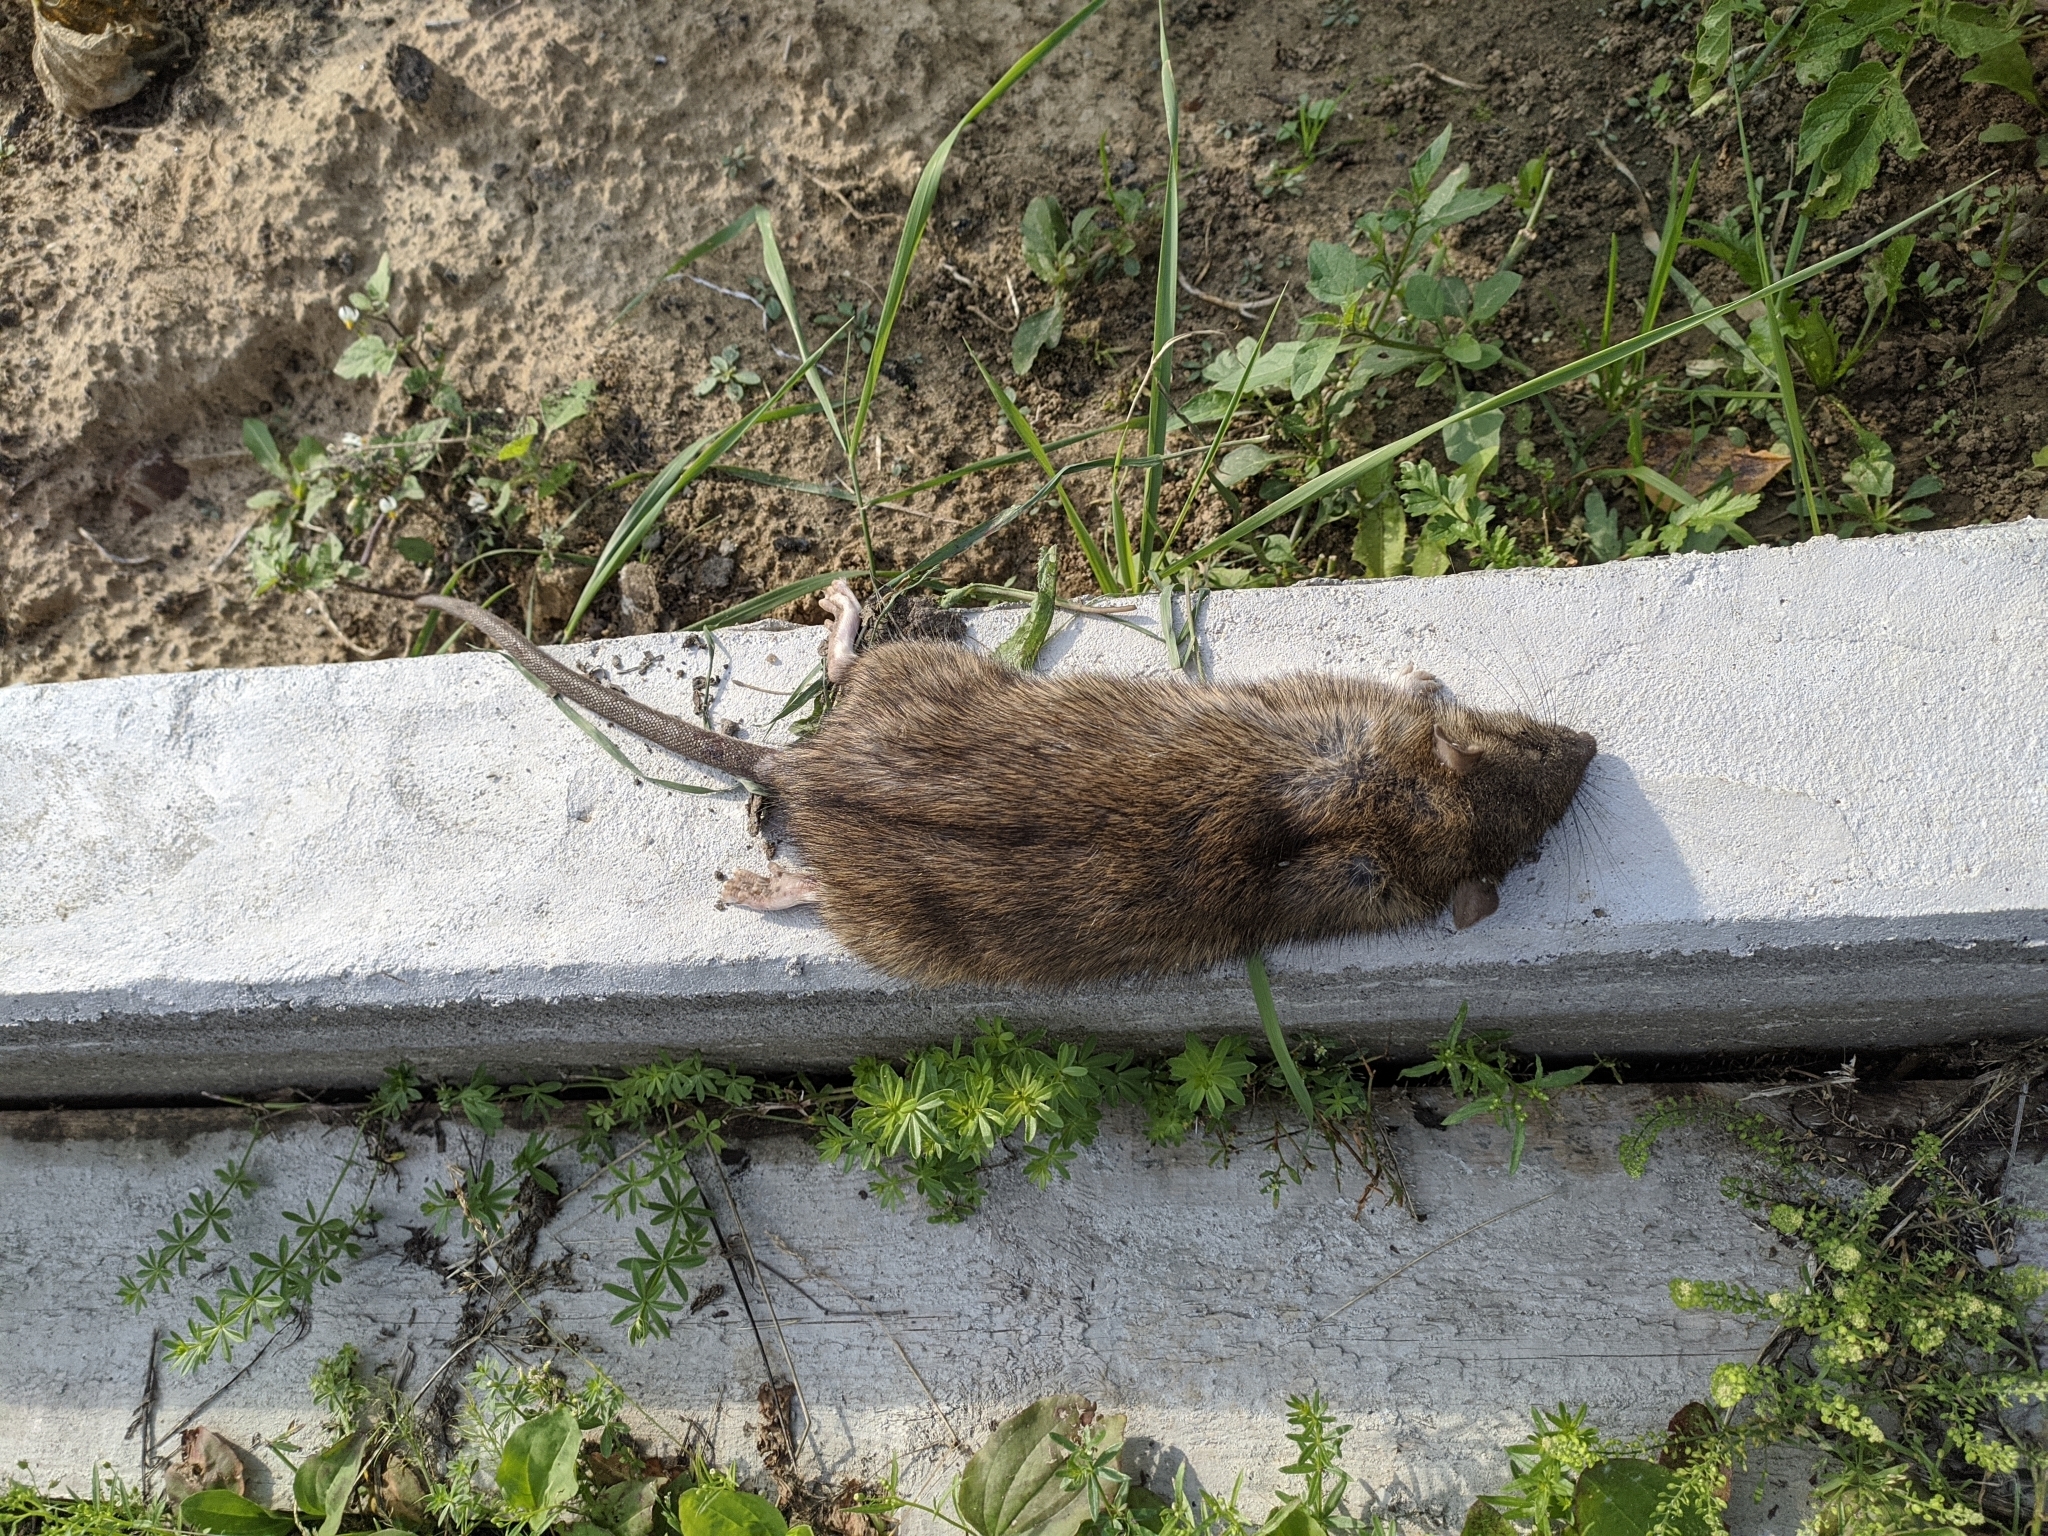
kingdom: Animalia
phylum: Chordata
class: Mammalia
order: Rodentia
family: Muridae
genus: Rattus
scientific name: Rattus norvegicus
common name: Brown rat
